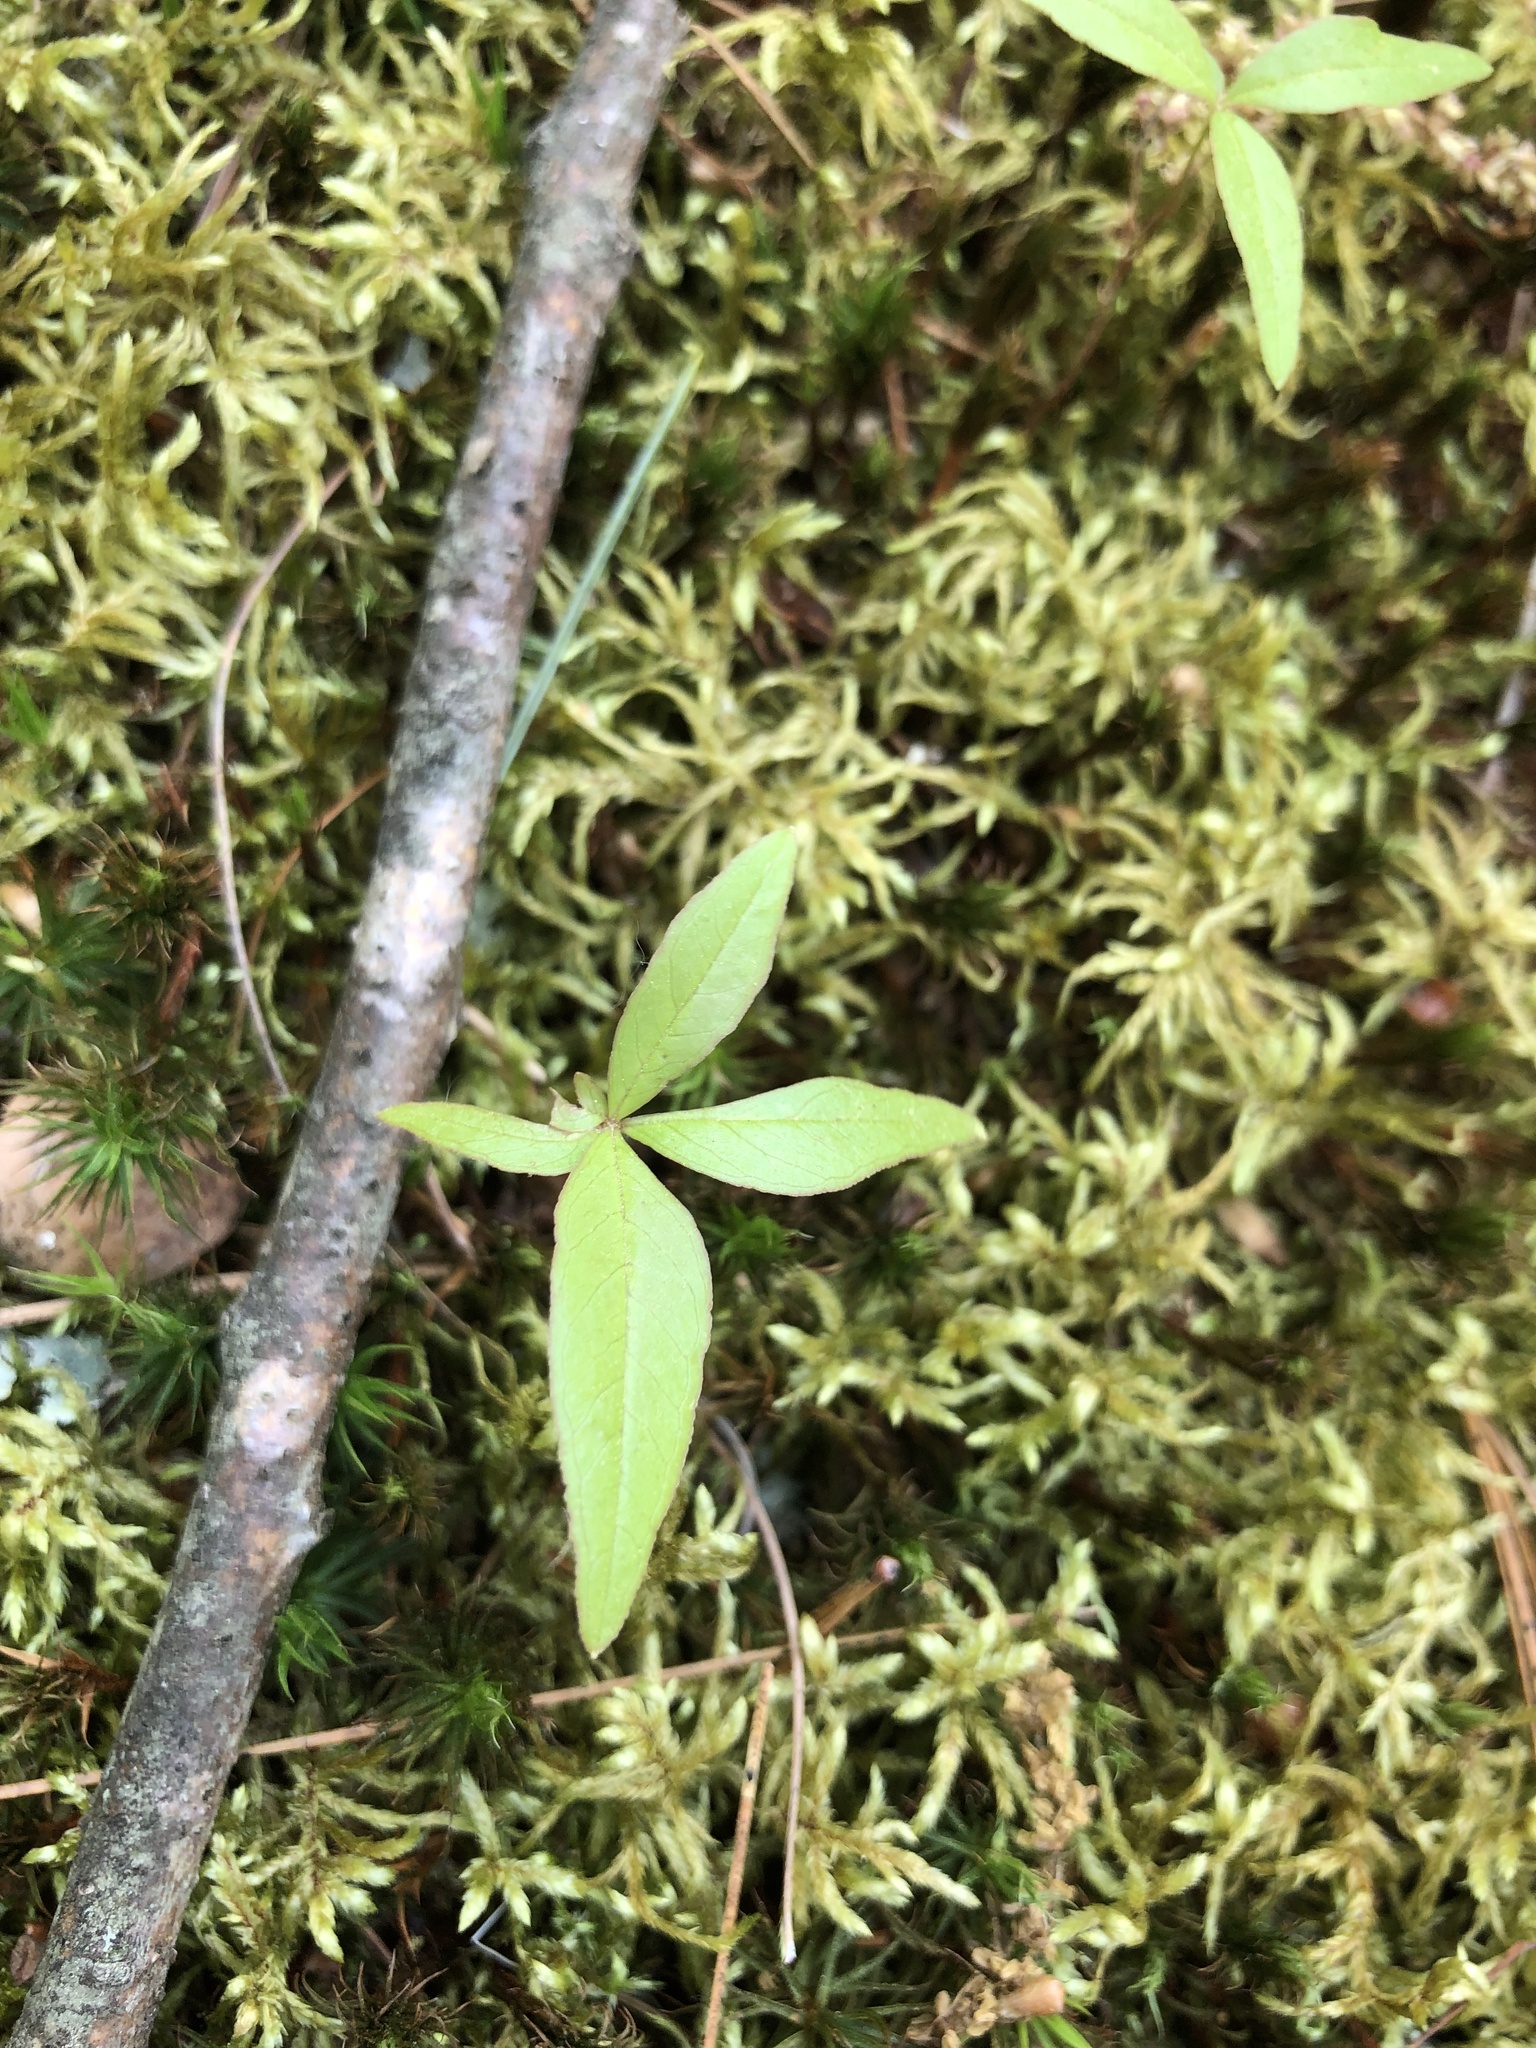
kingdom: Plantae
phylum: Tracheophyta
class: Magnoliopsida
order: Ericales
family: Primulaceae
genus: Lysimachia
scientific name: Lysimachia borealis
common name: American starflower
